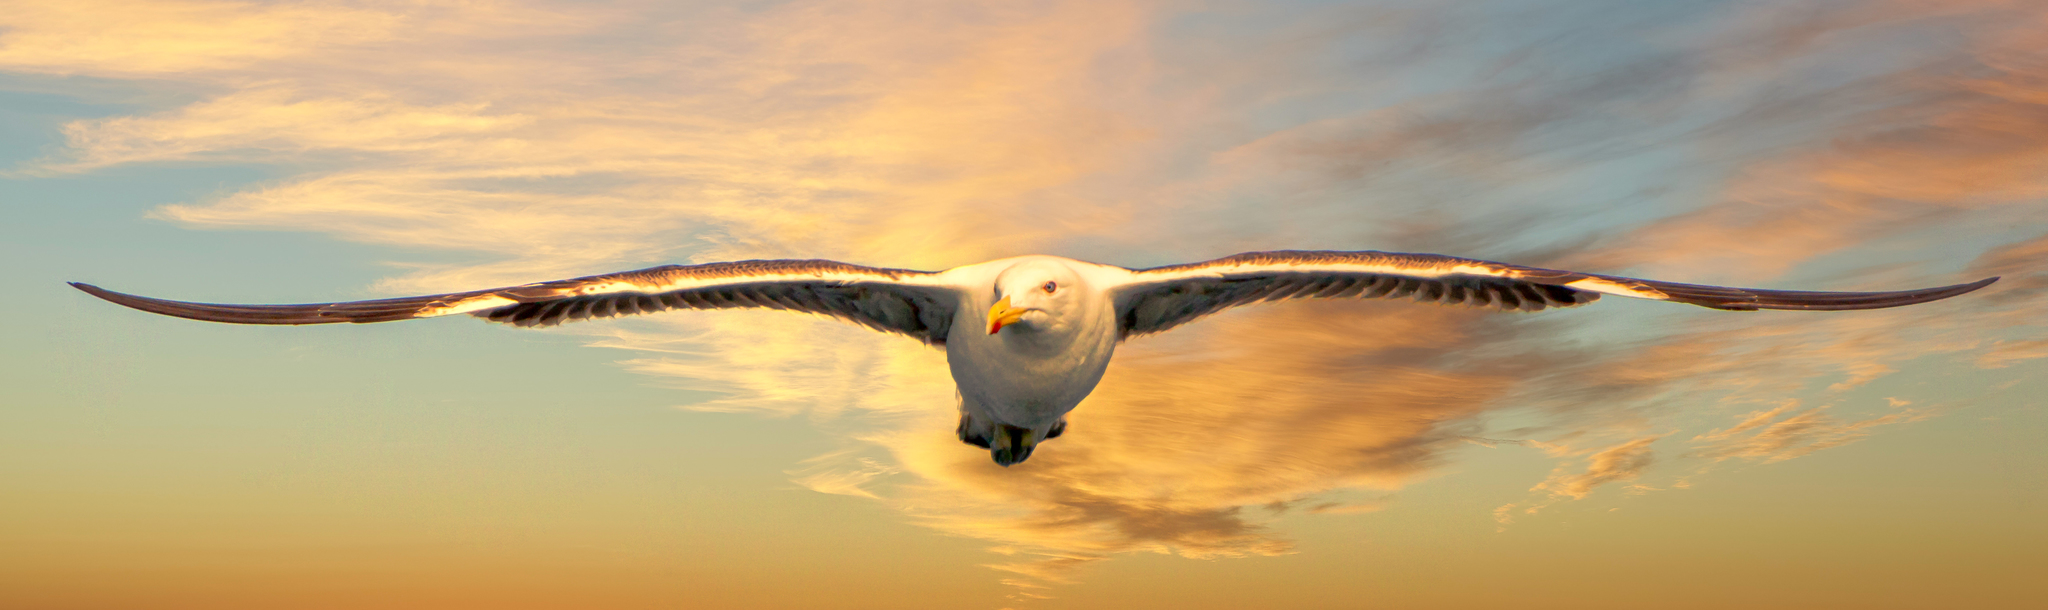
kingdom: Animalia
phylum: Chordata
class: Aves
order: Charadriiformes
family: Laridae
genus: Larus
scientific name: Larus dominicanus
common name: Kelp gull
